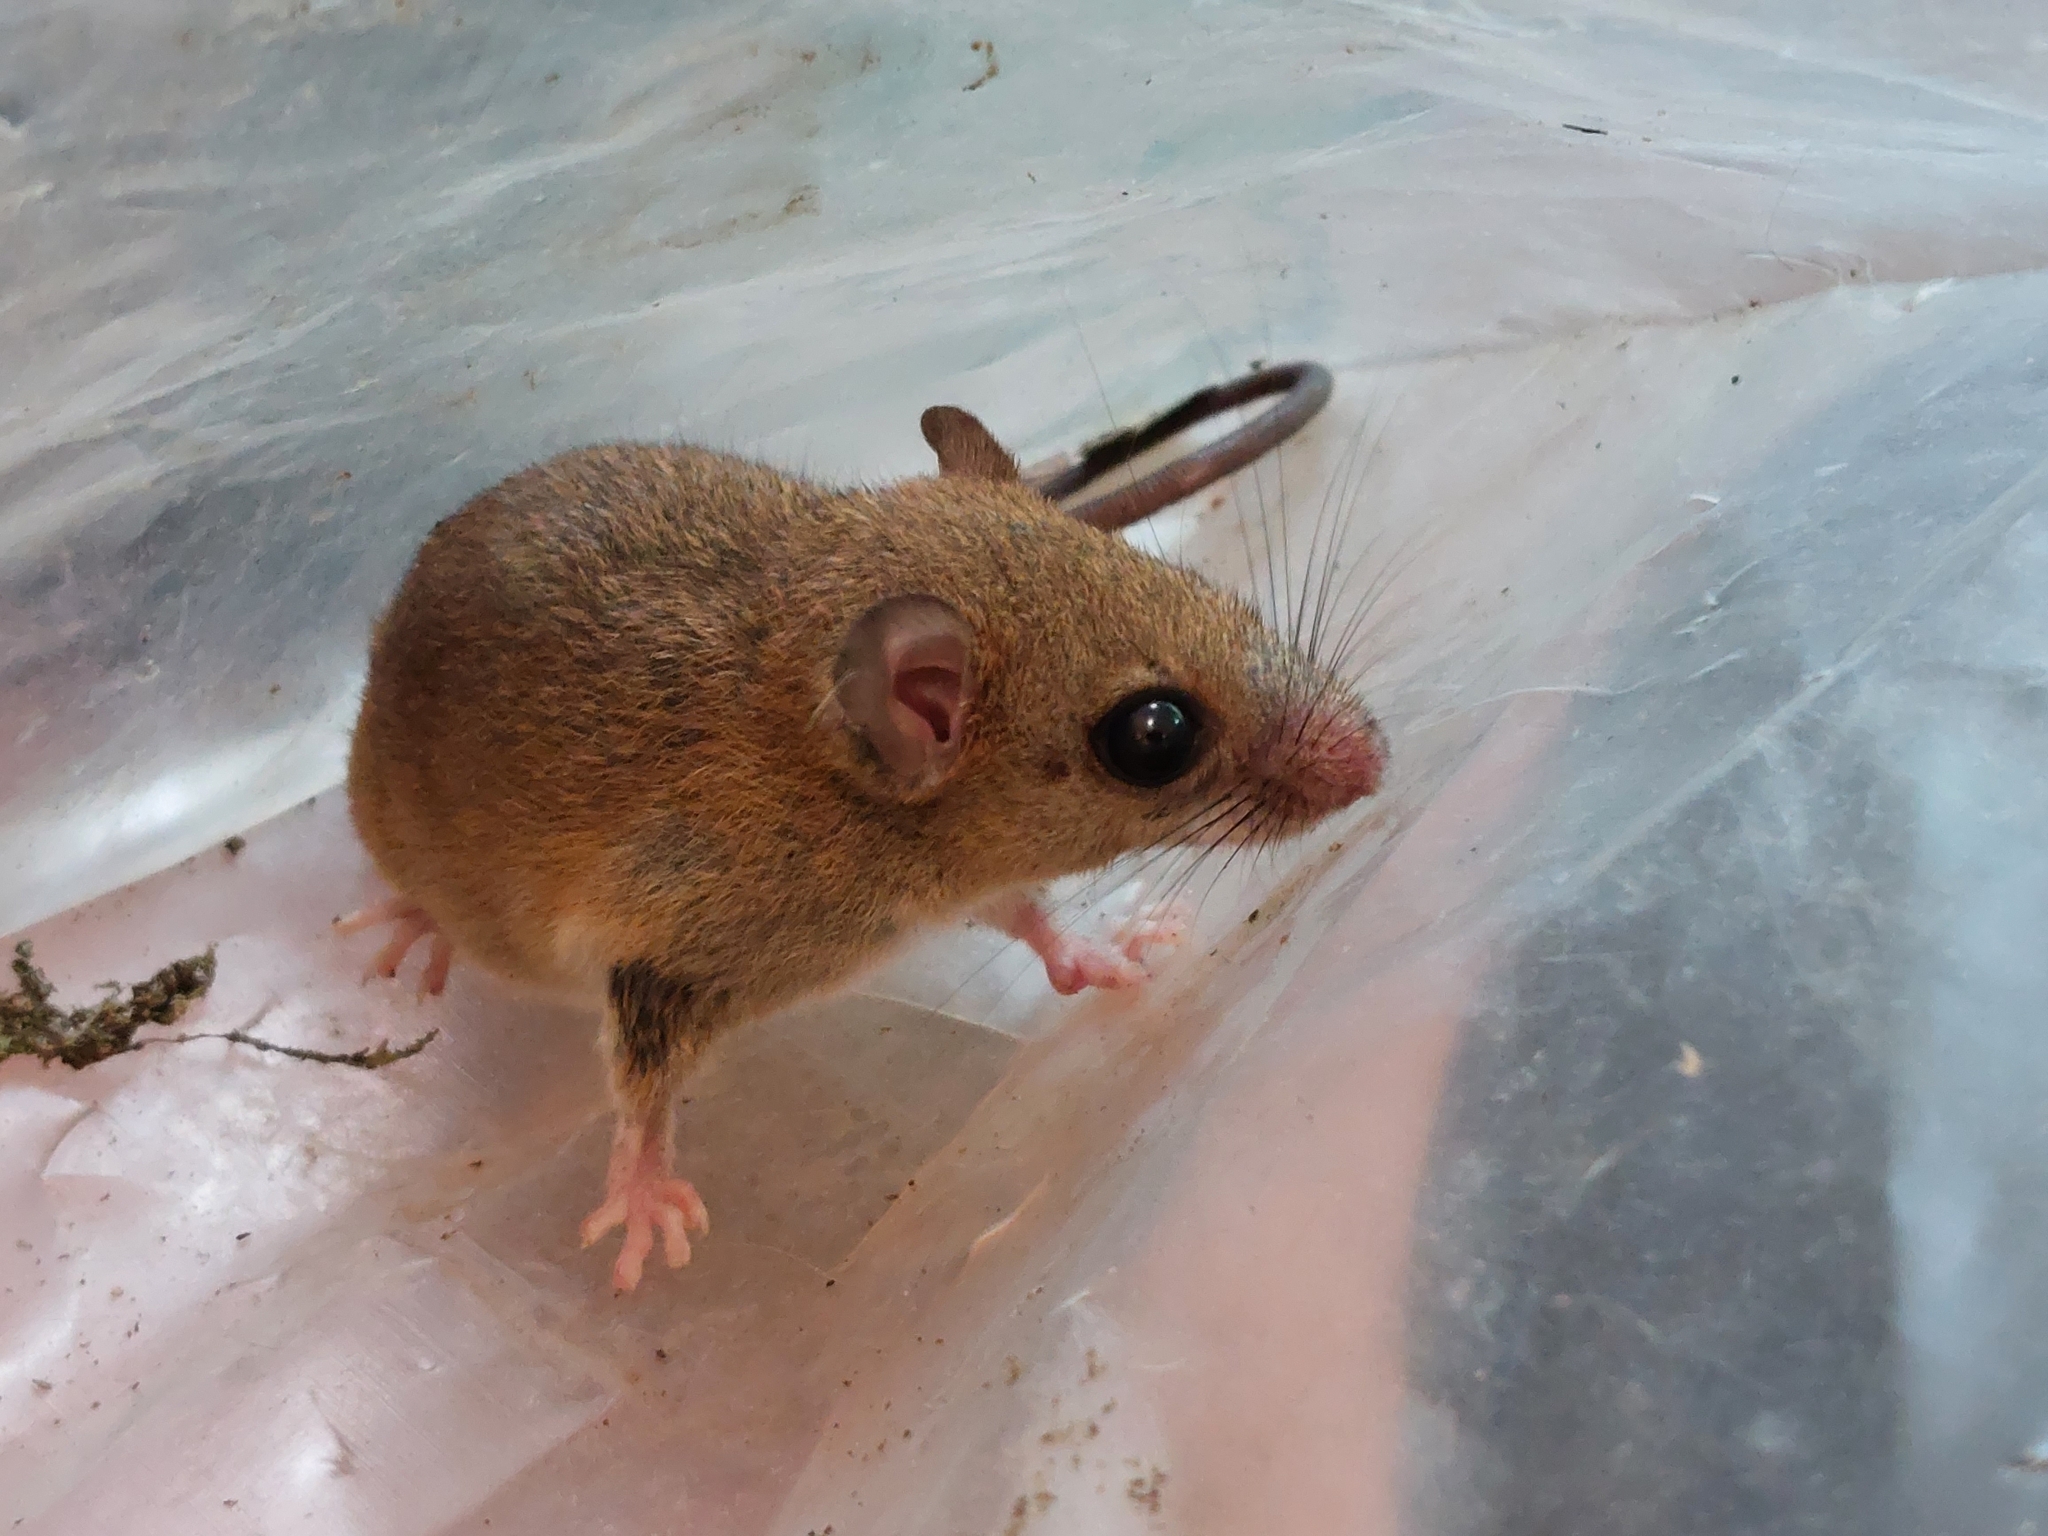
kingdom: Animalia
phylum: Chordata
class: Mammalia
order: Rodentia
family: Cricetidae
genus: Oecomys
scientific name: Oecomys bicolor
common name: White-bellied oecomys
